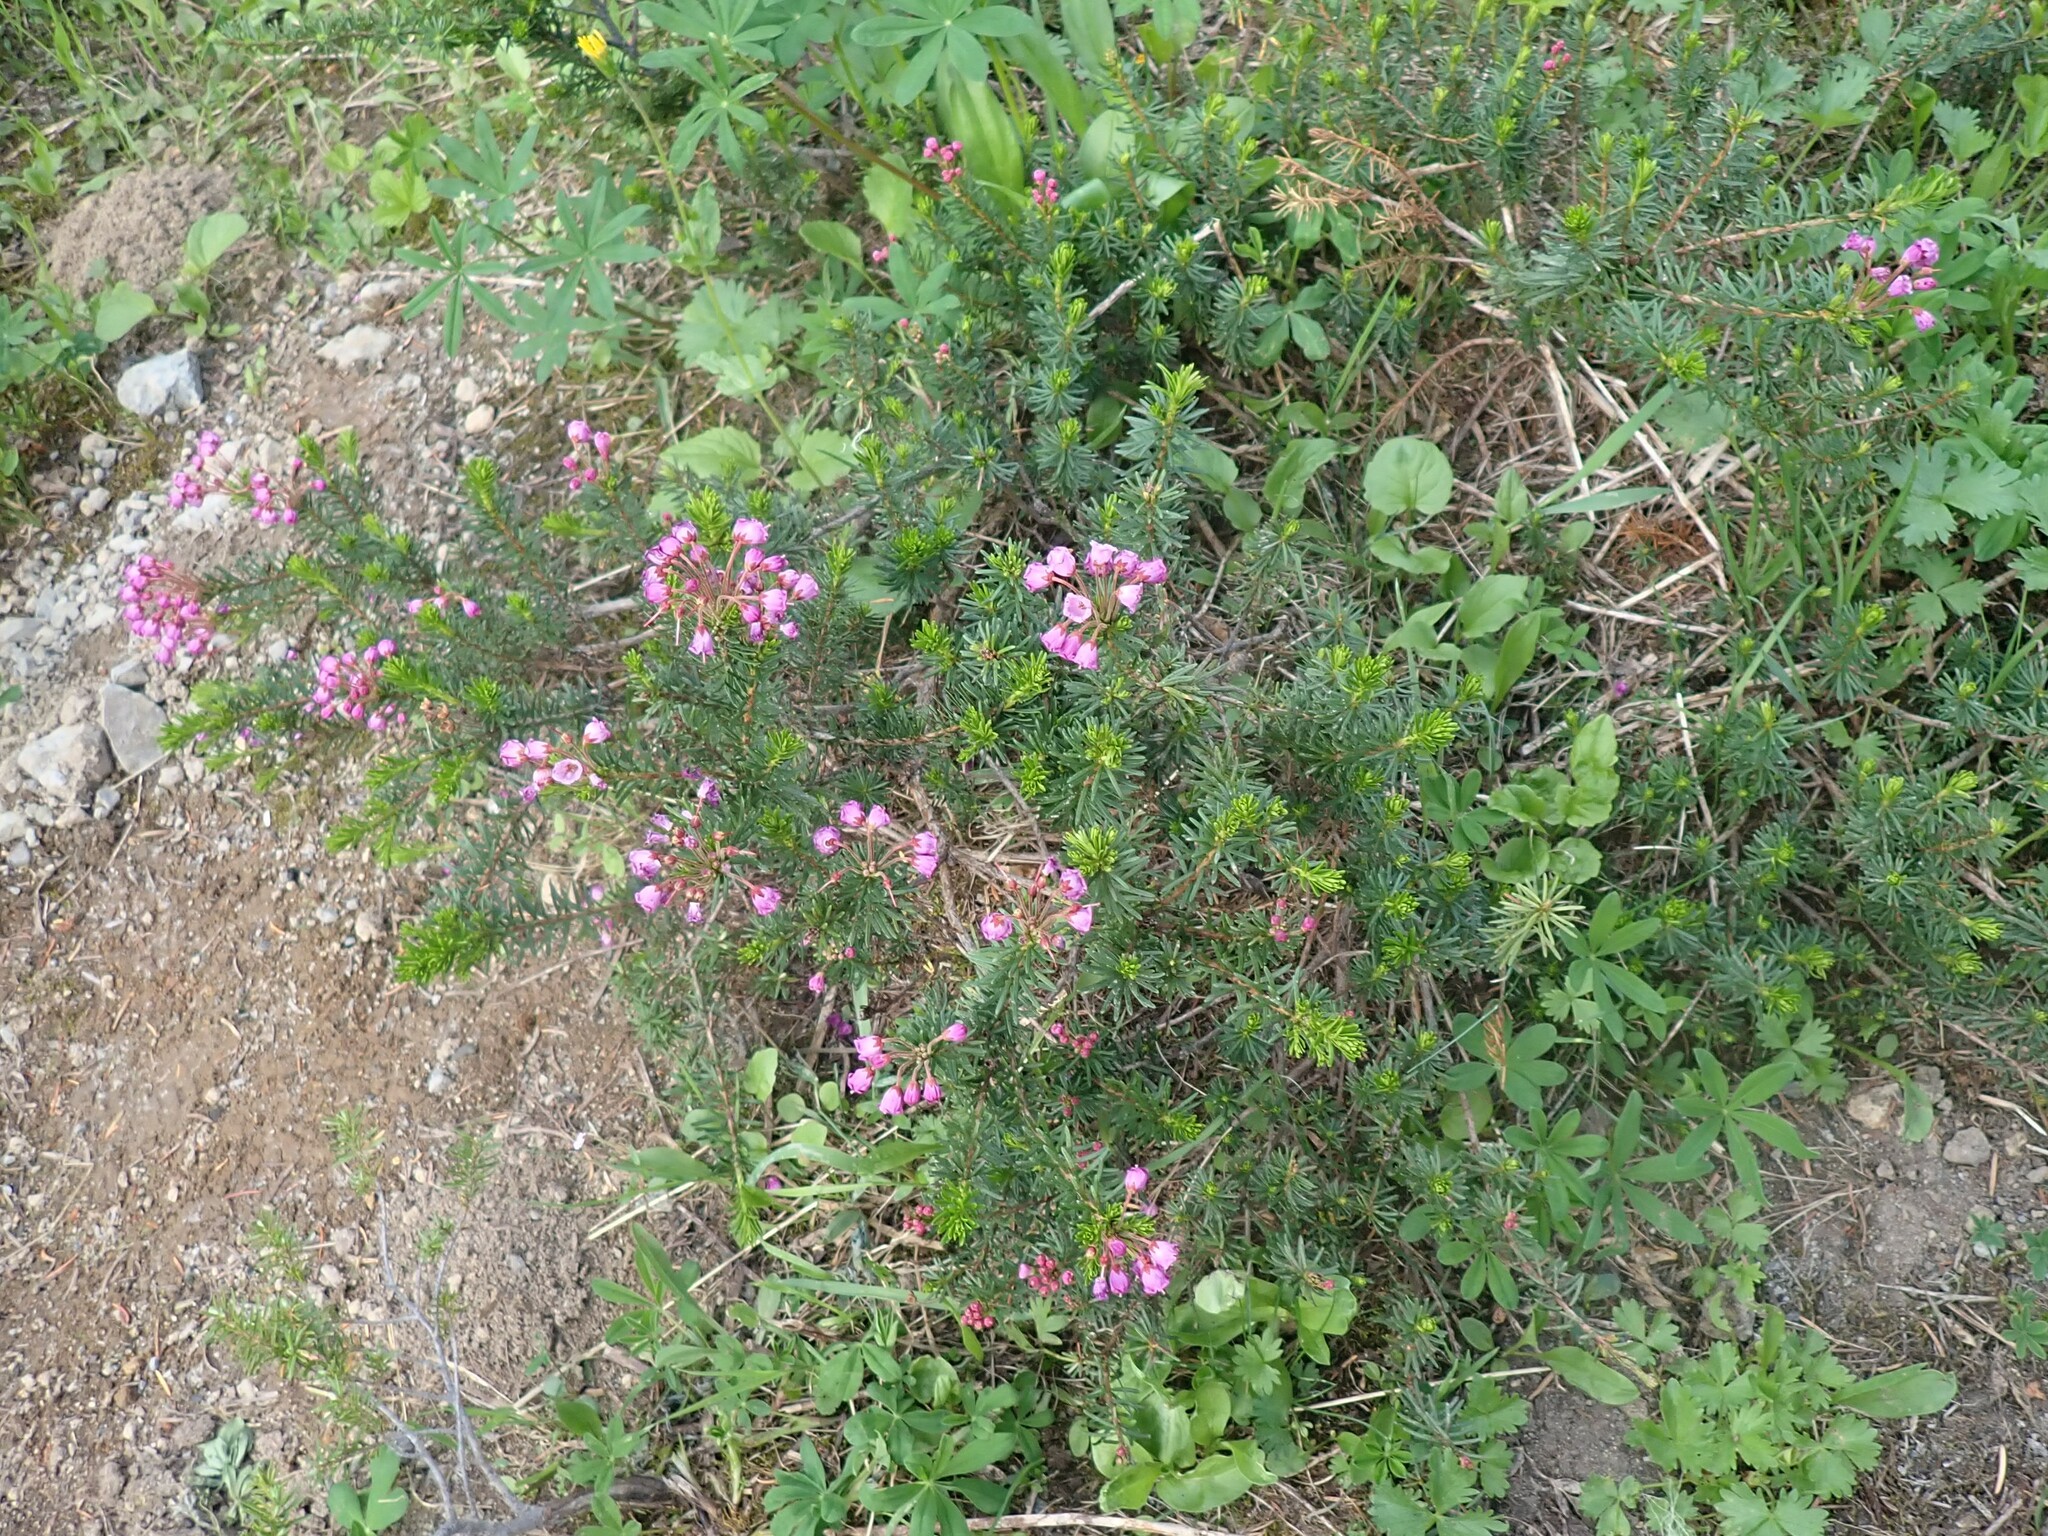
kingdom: Plantae
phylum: Tracheophyta
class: Magnoliopsida
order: Ericales
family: Ericaceae
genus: Phyllodoce
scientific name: Phyllodoce empetriformis
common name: Pink mountain heather
